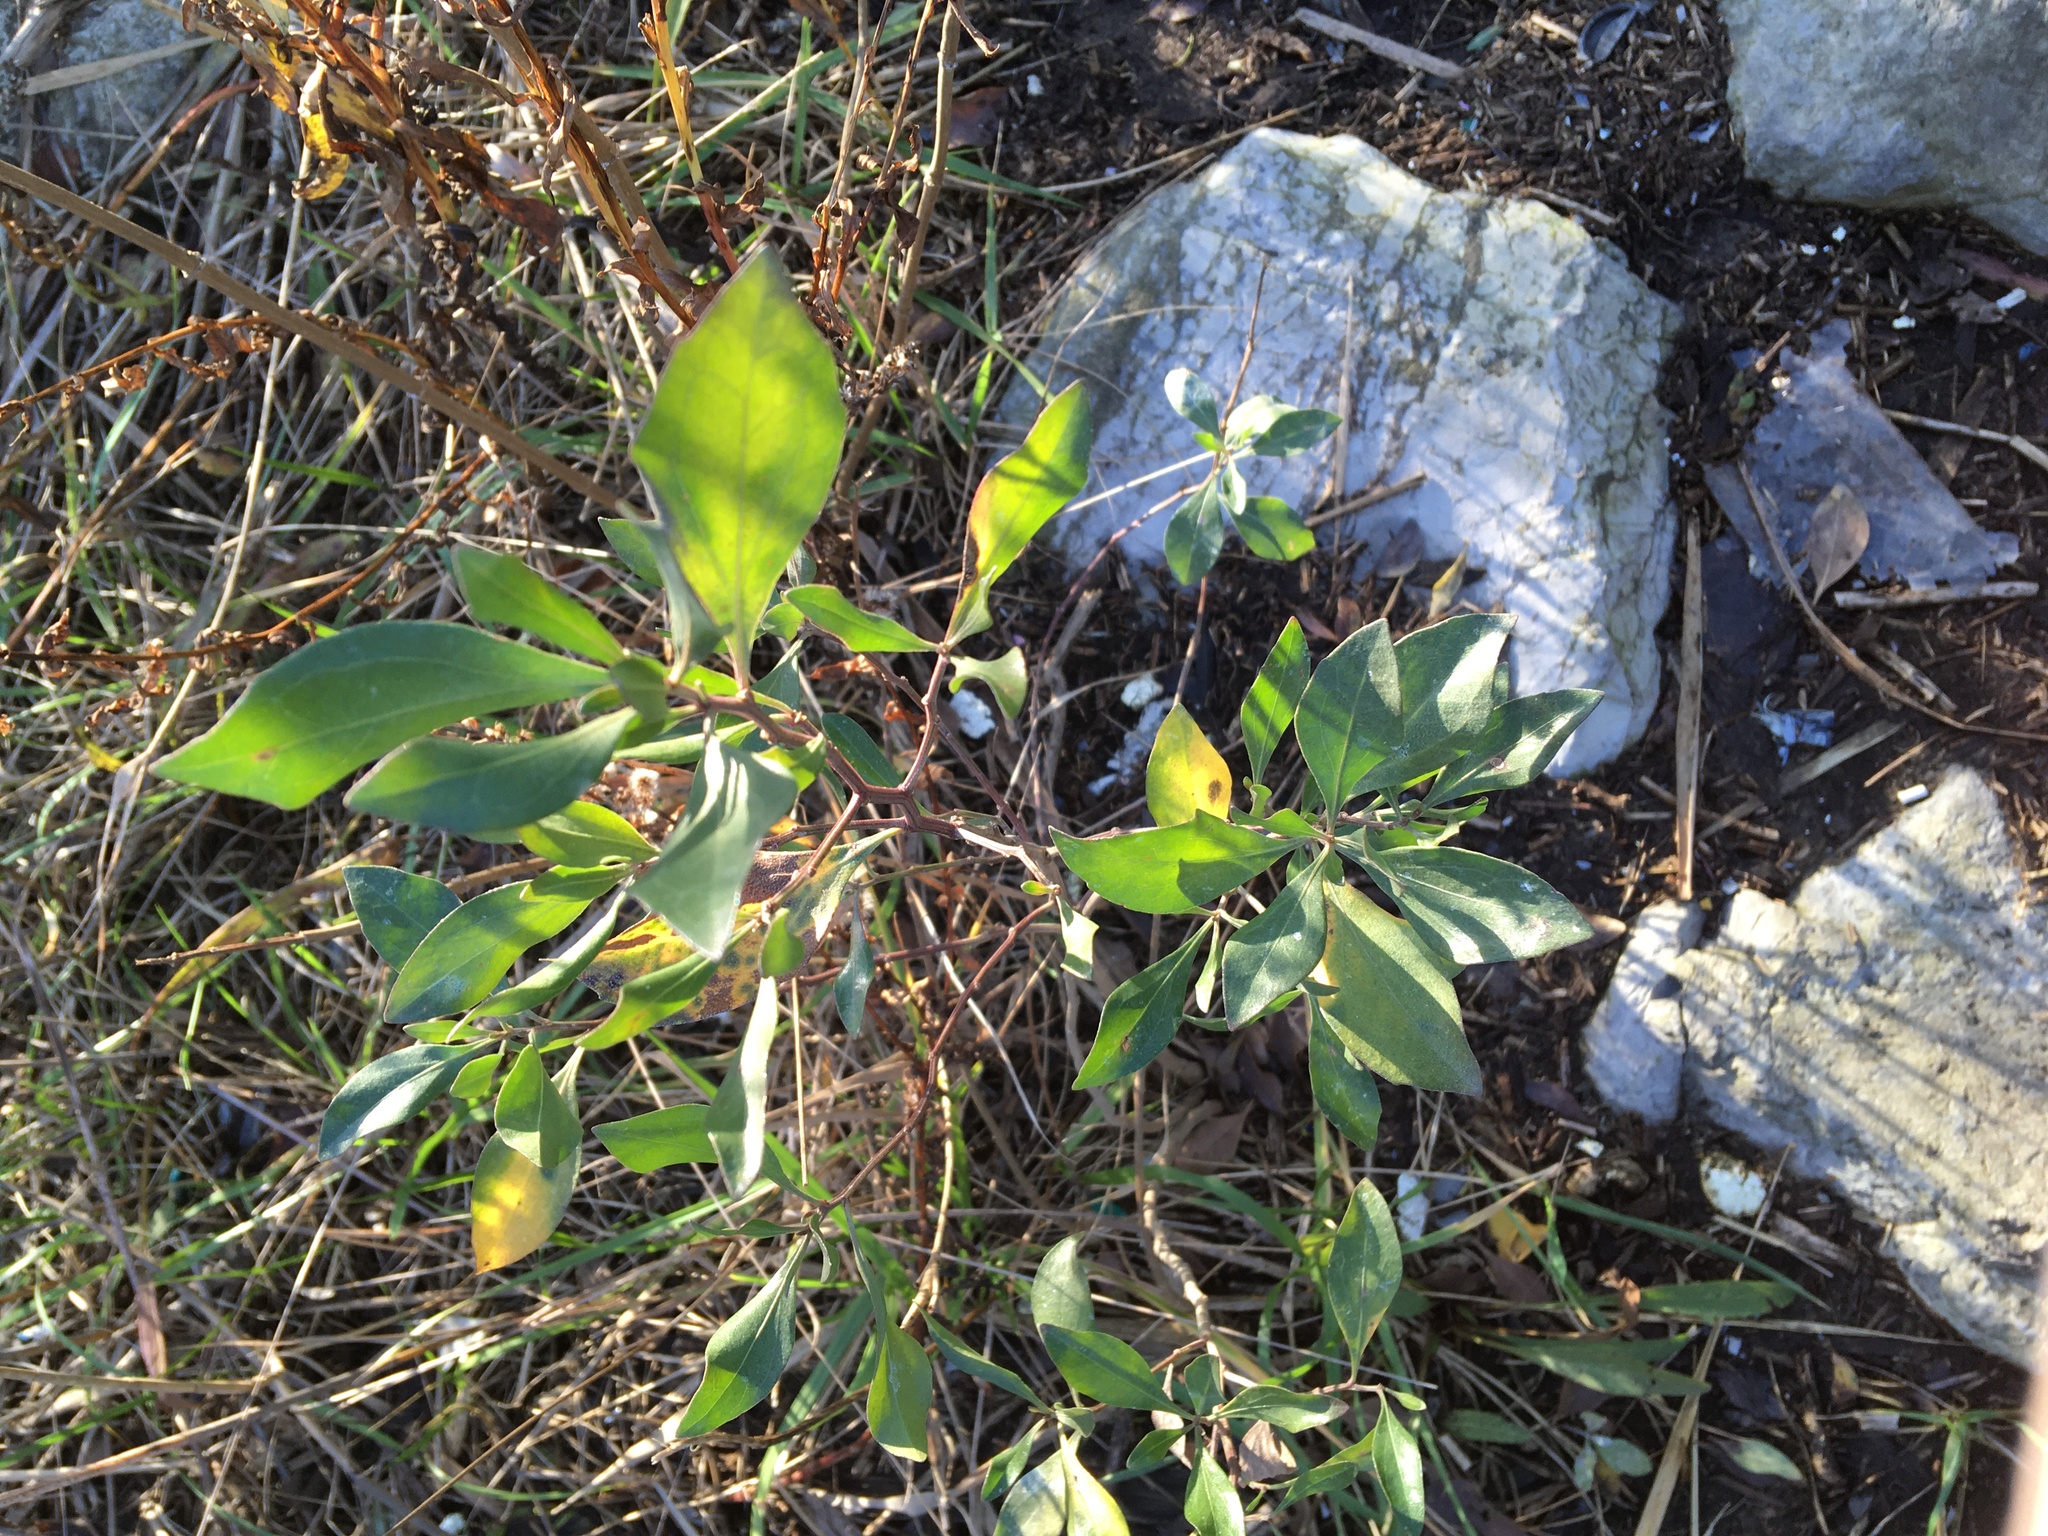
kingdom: Plantae
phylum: Tracheophyta
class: Magnoliopsida
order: Asterales
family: Asteraceae
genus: Baccharis
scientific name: Baccharis halimifolia
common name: Eastern baccharis
